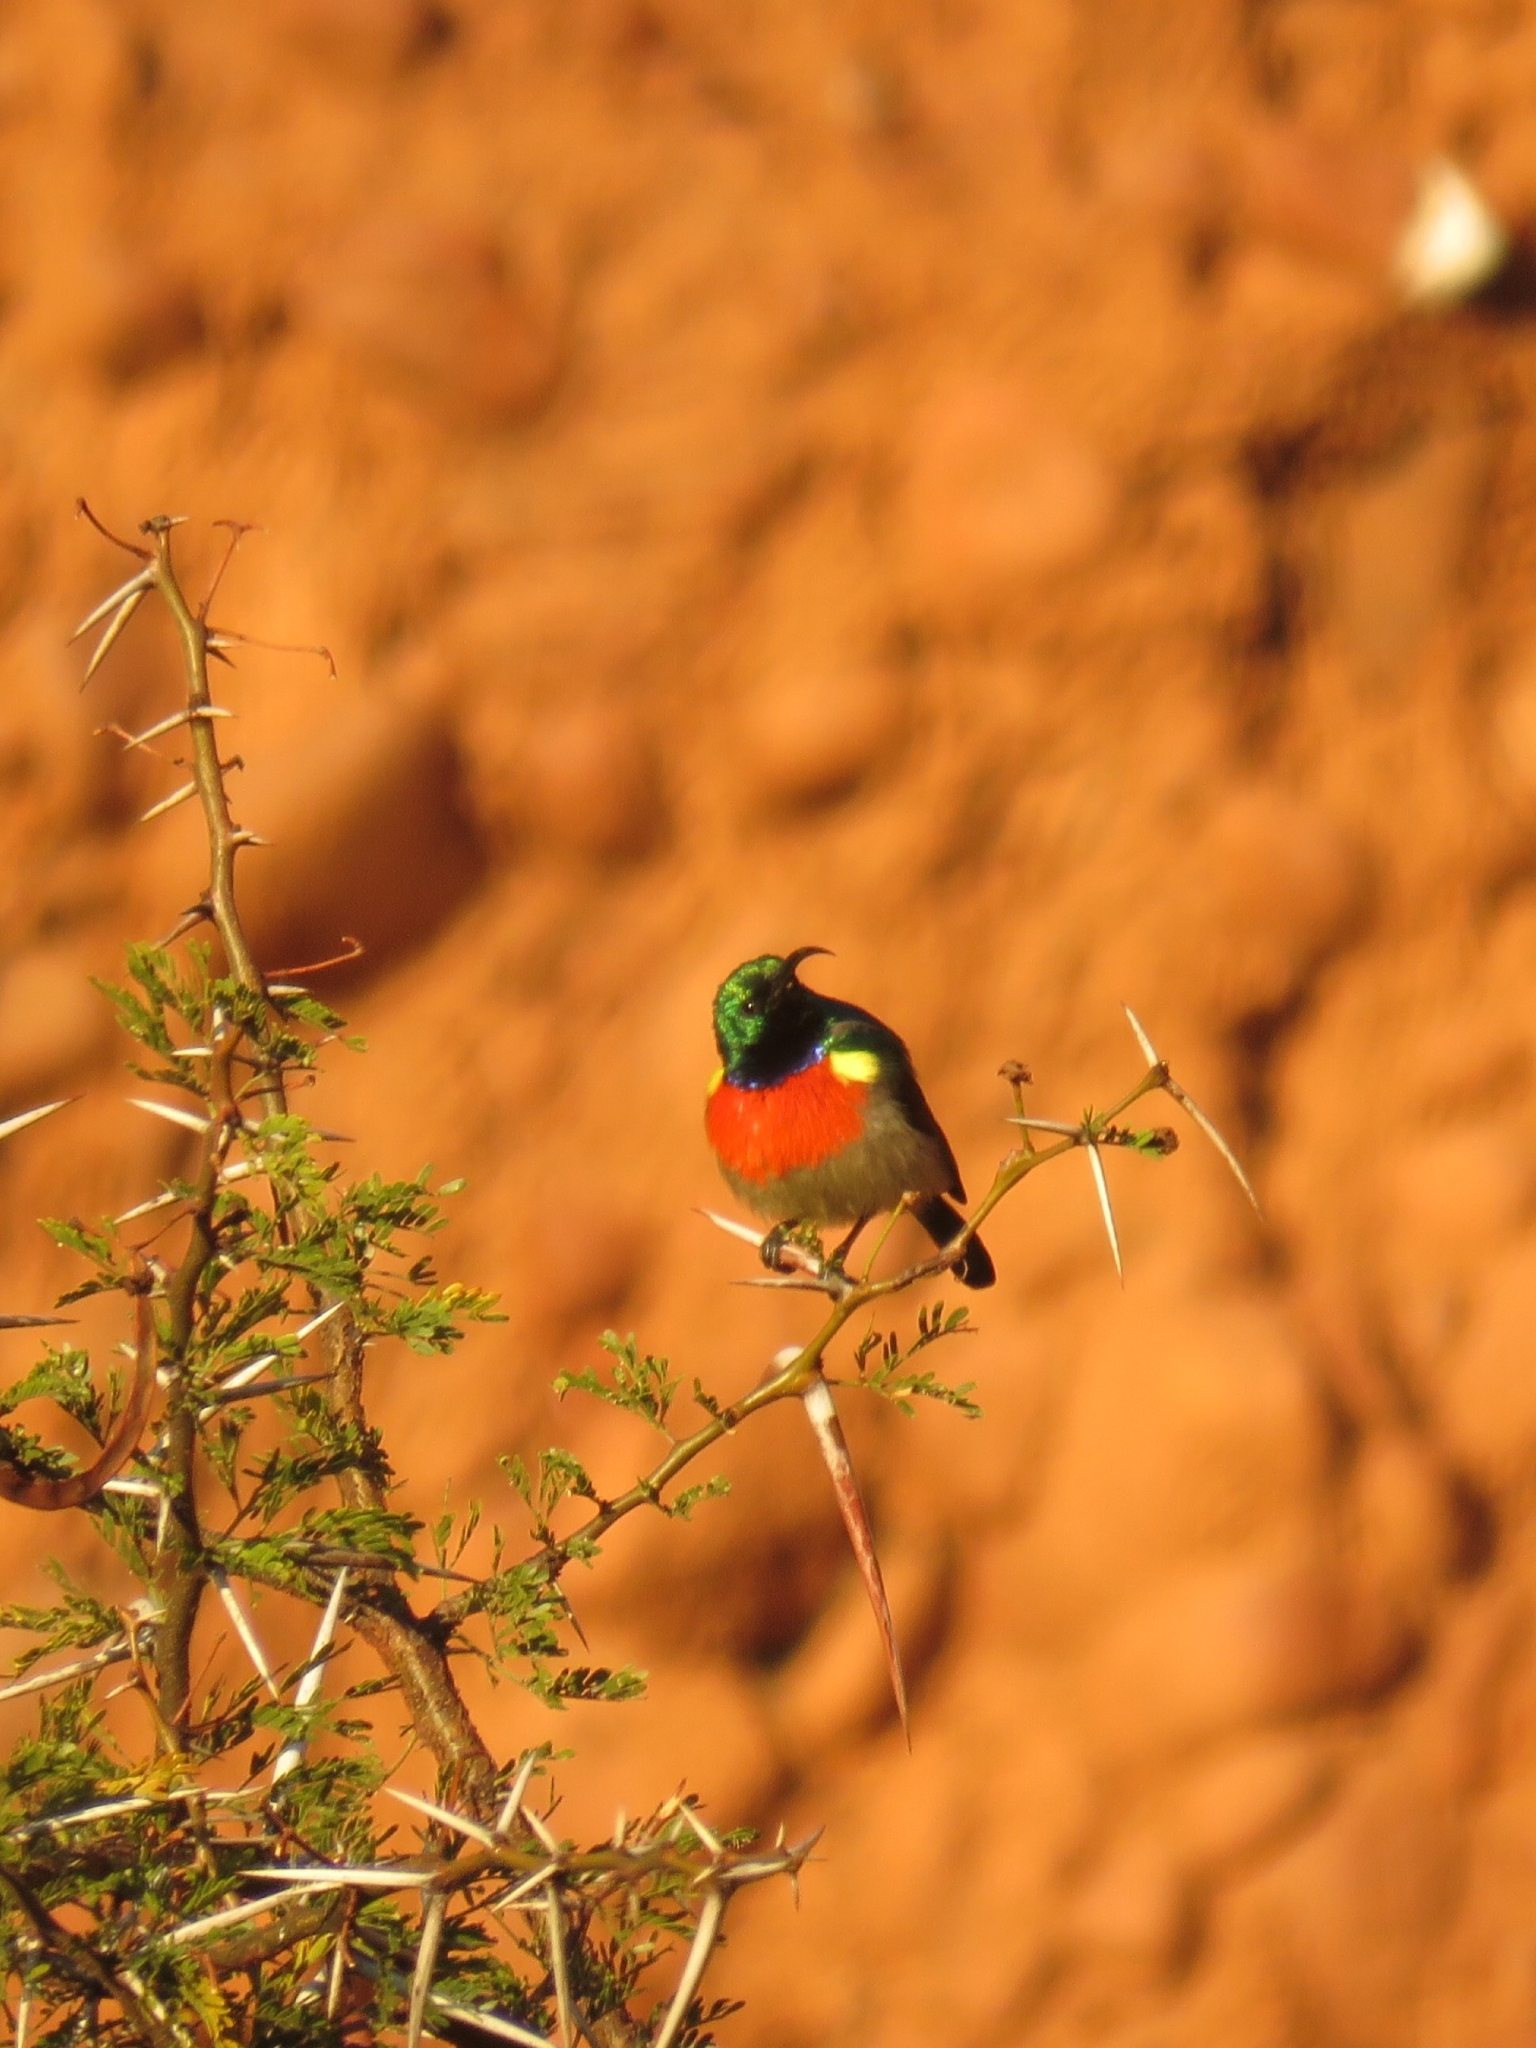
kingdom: Animalia
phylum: Chordata
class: Aves
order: Passeriformes
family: Nectariniidae
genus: Cinnyris
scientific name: Cinnyris afer
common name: Greater double-collared sunbird
